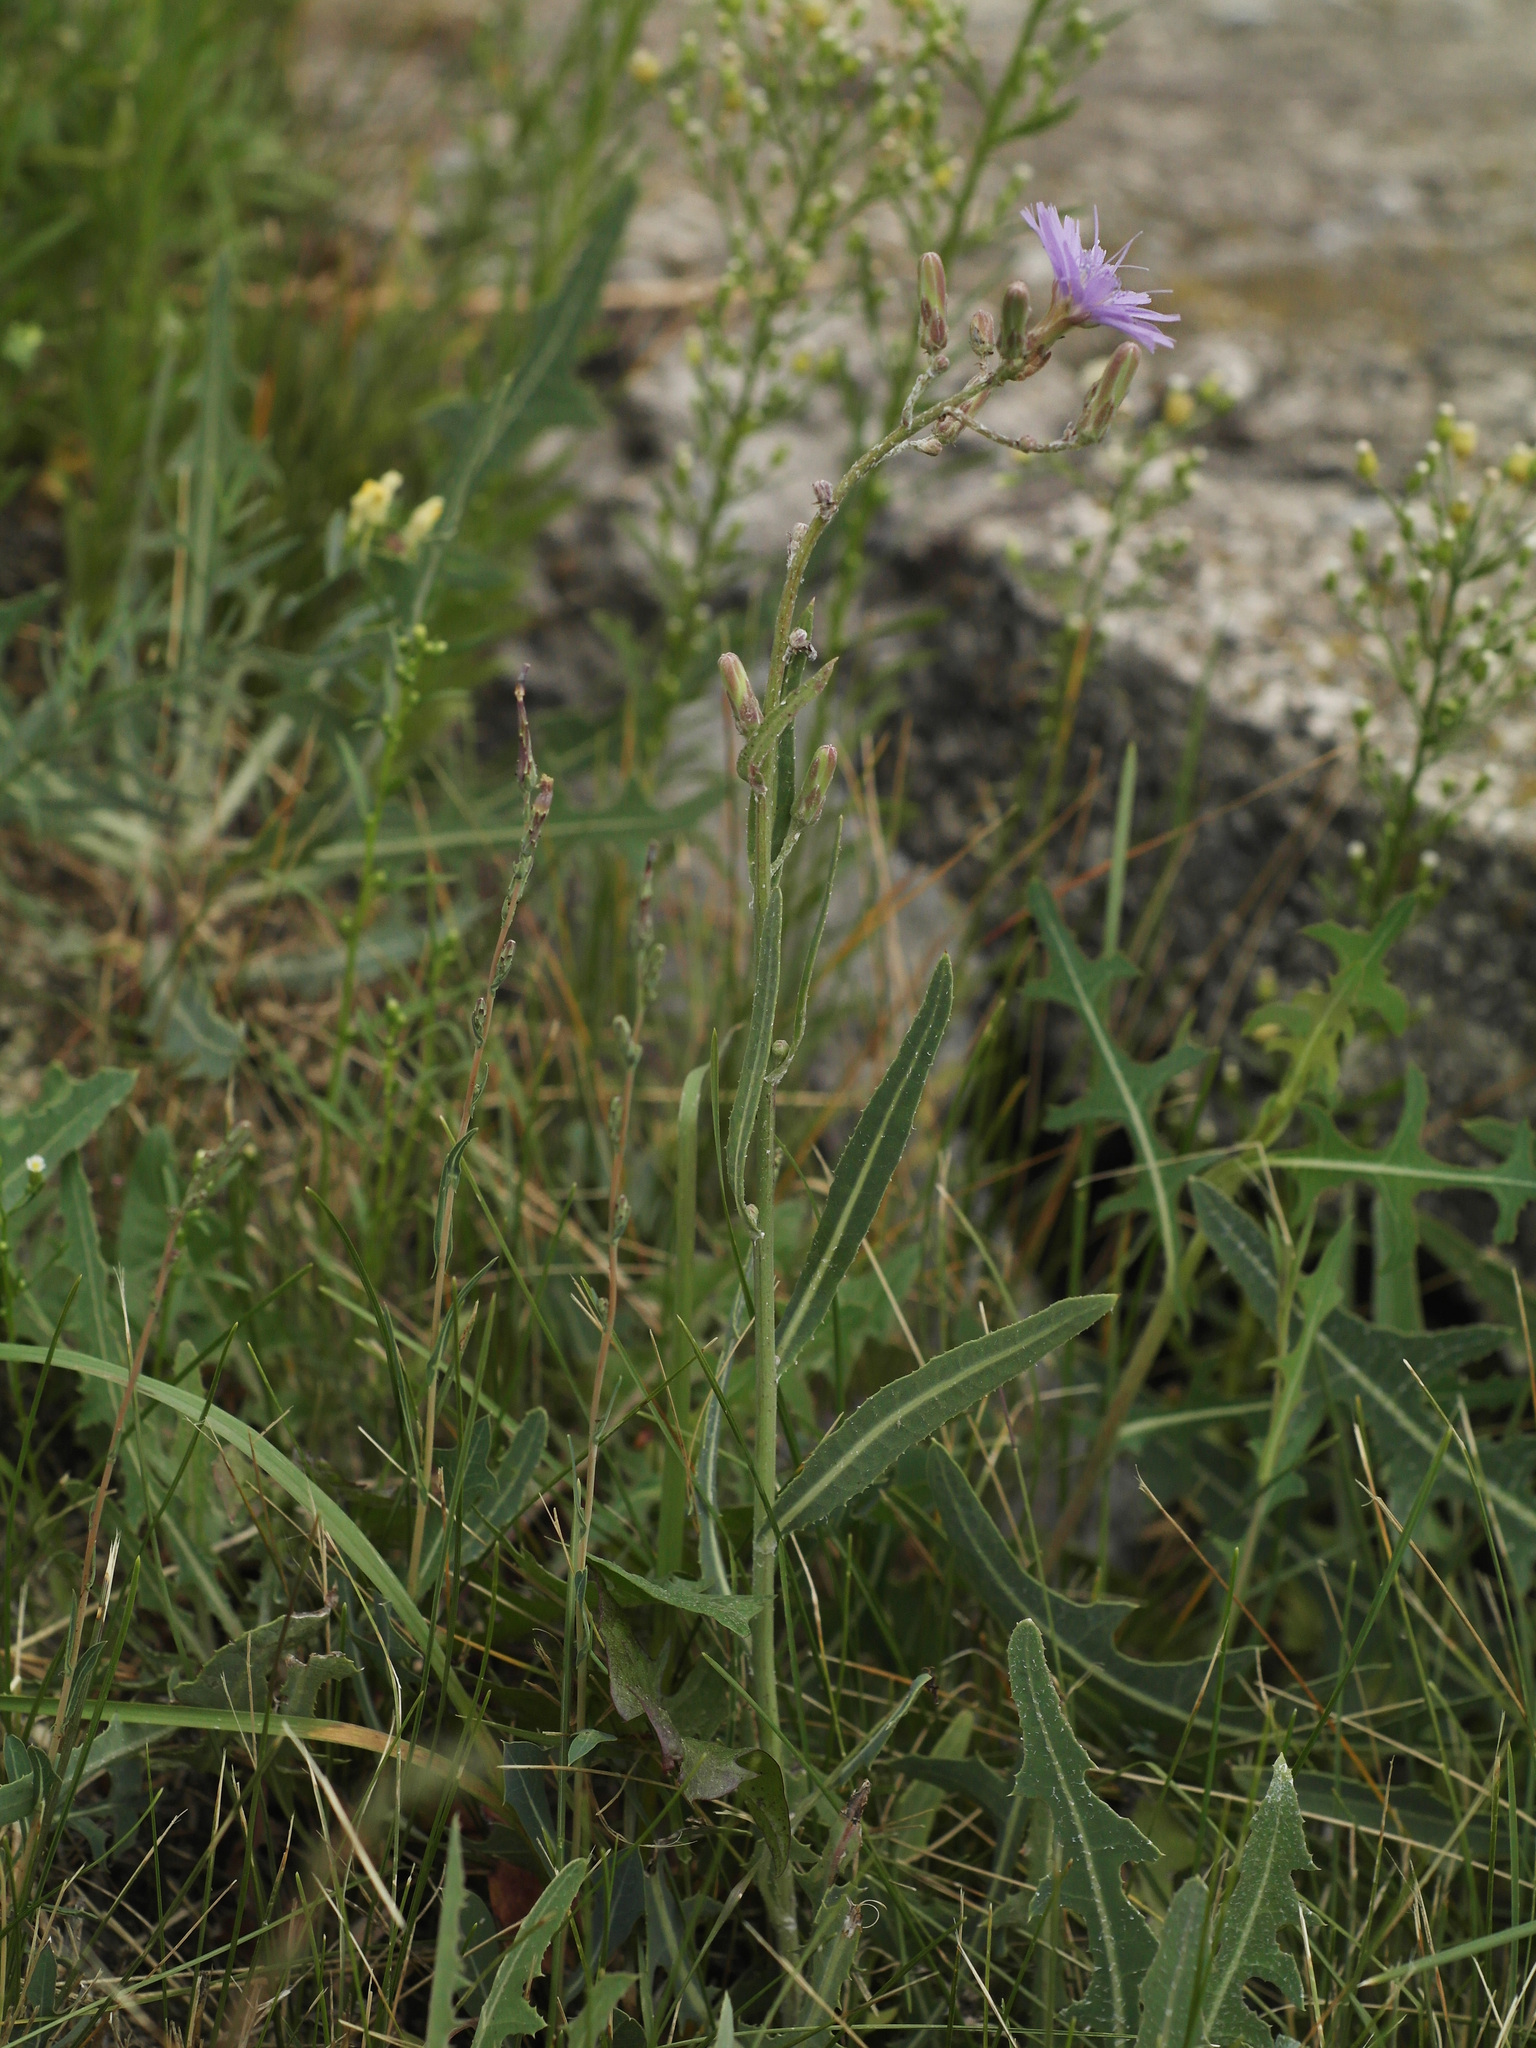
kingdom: Plantae
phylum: Tracheophyta
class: Magnoliopsida
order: Asterales
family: Asteraceae
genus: Lactuca
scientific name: Lactuca tatarica
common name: Blue lettuce
